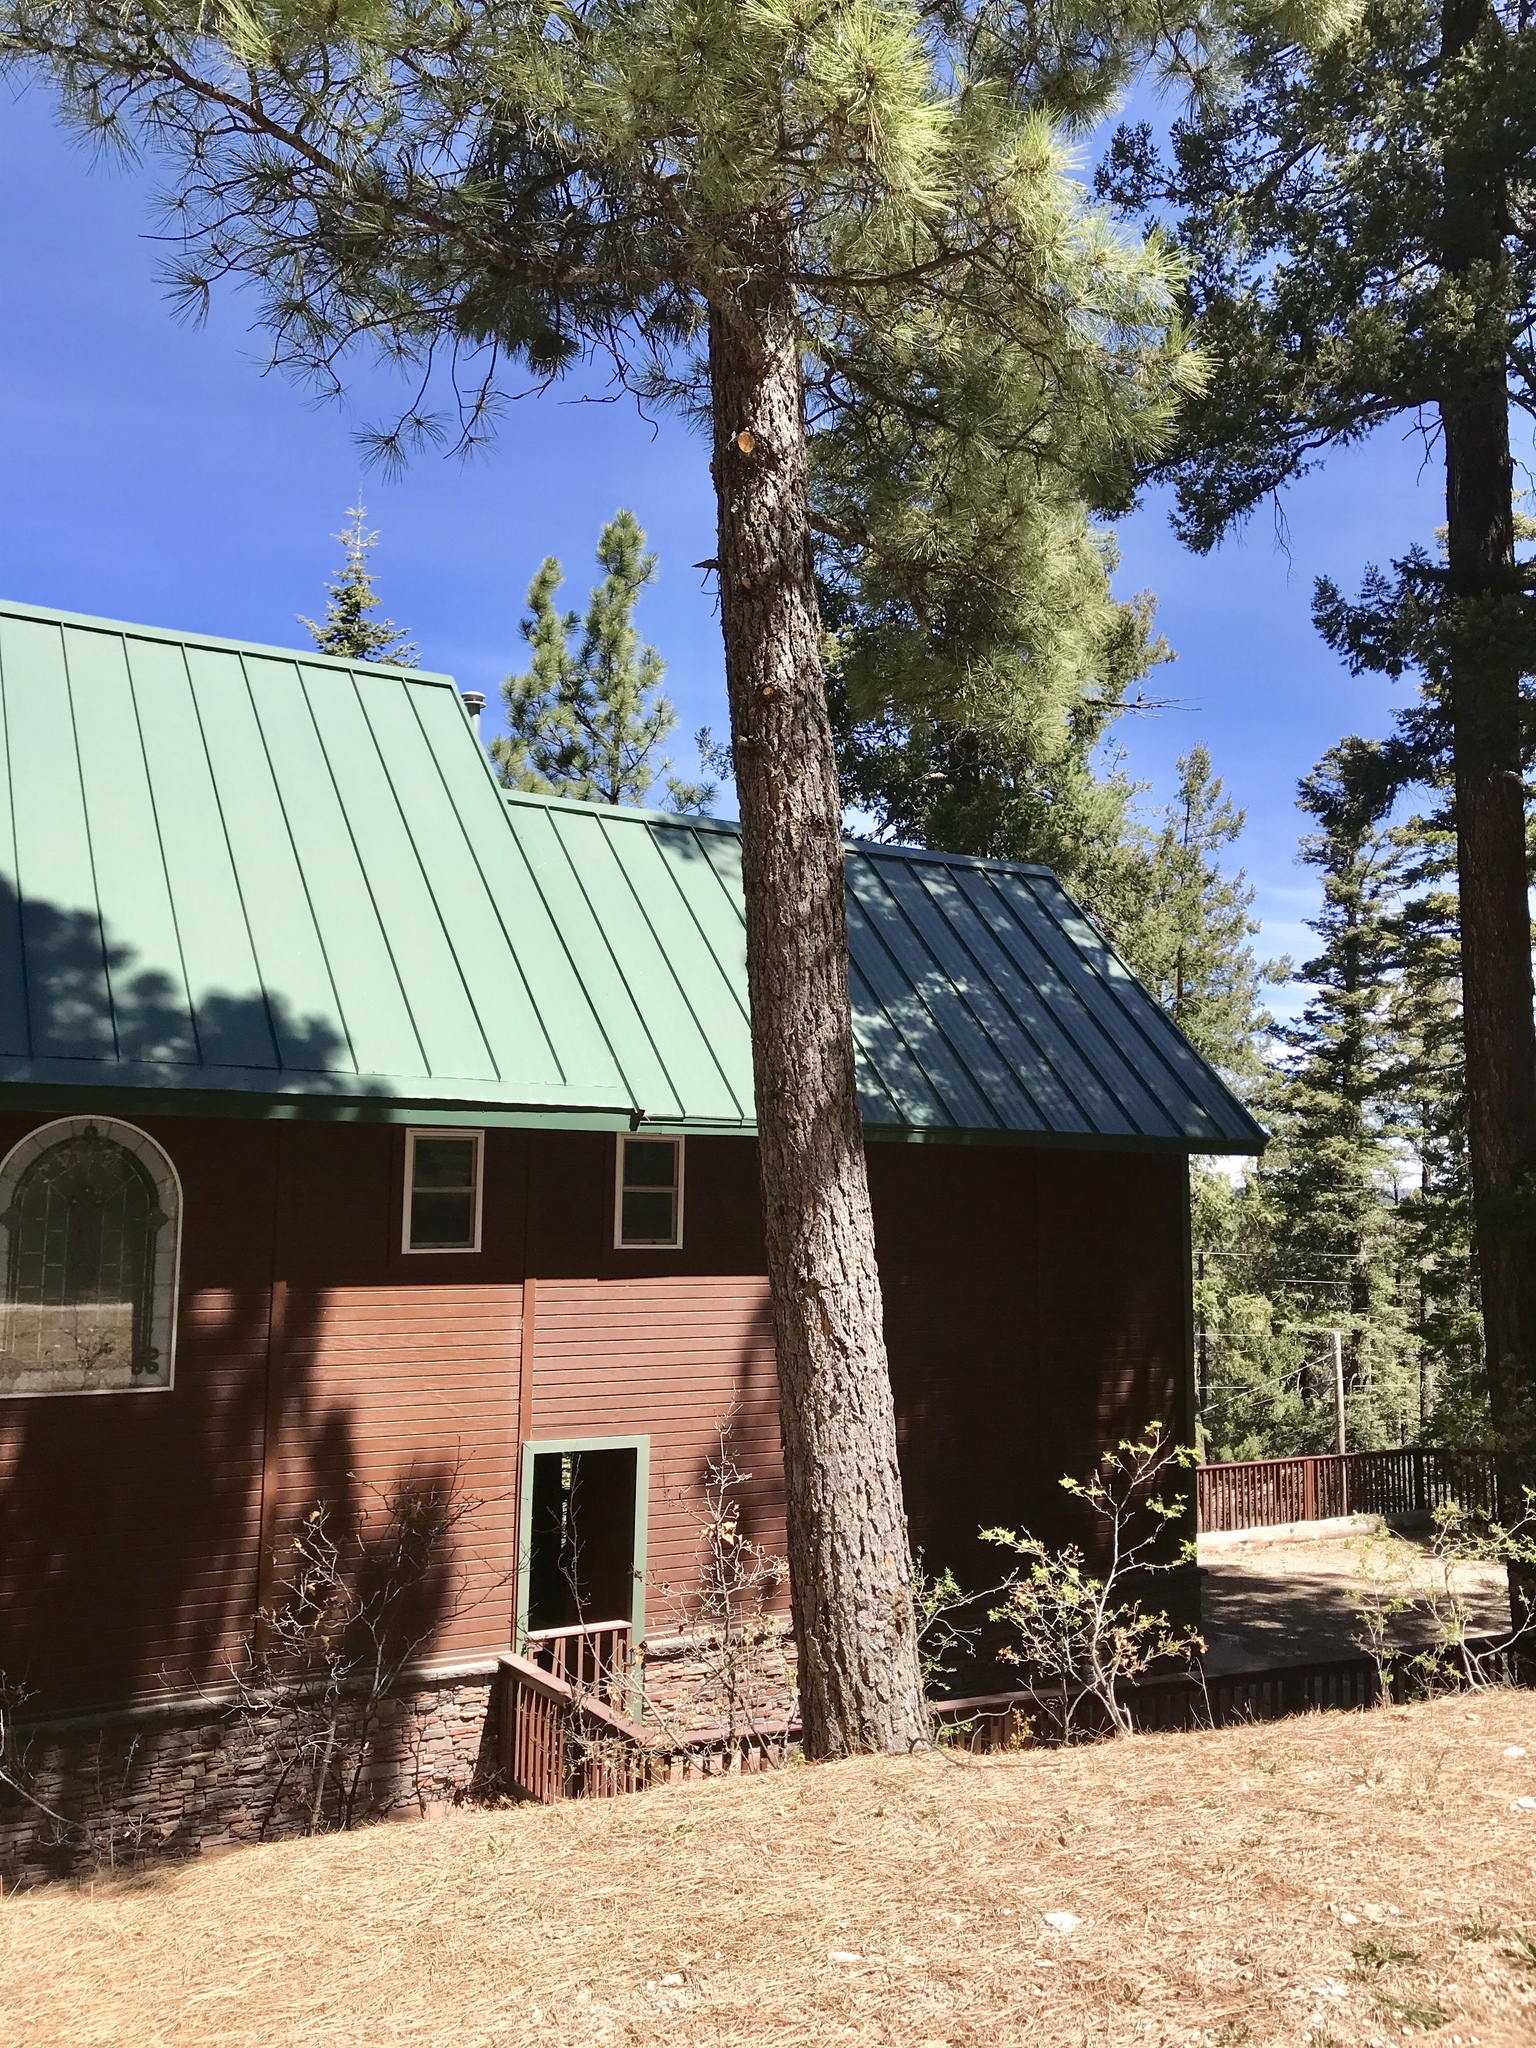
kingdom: Plantae
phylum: Tracheophyta
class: Pinopsida
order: Pinales
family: Pinaceae
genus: Pinus
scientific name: Pinus ponderosa
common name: Western yellow-pine
